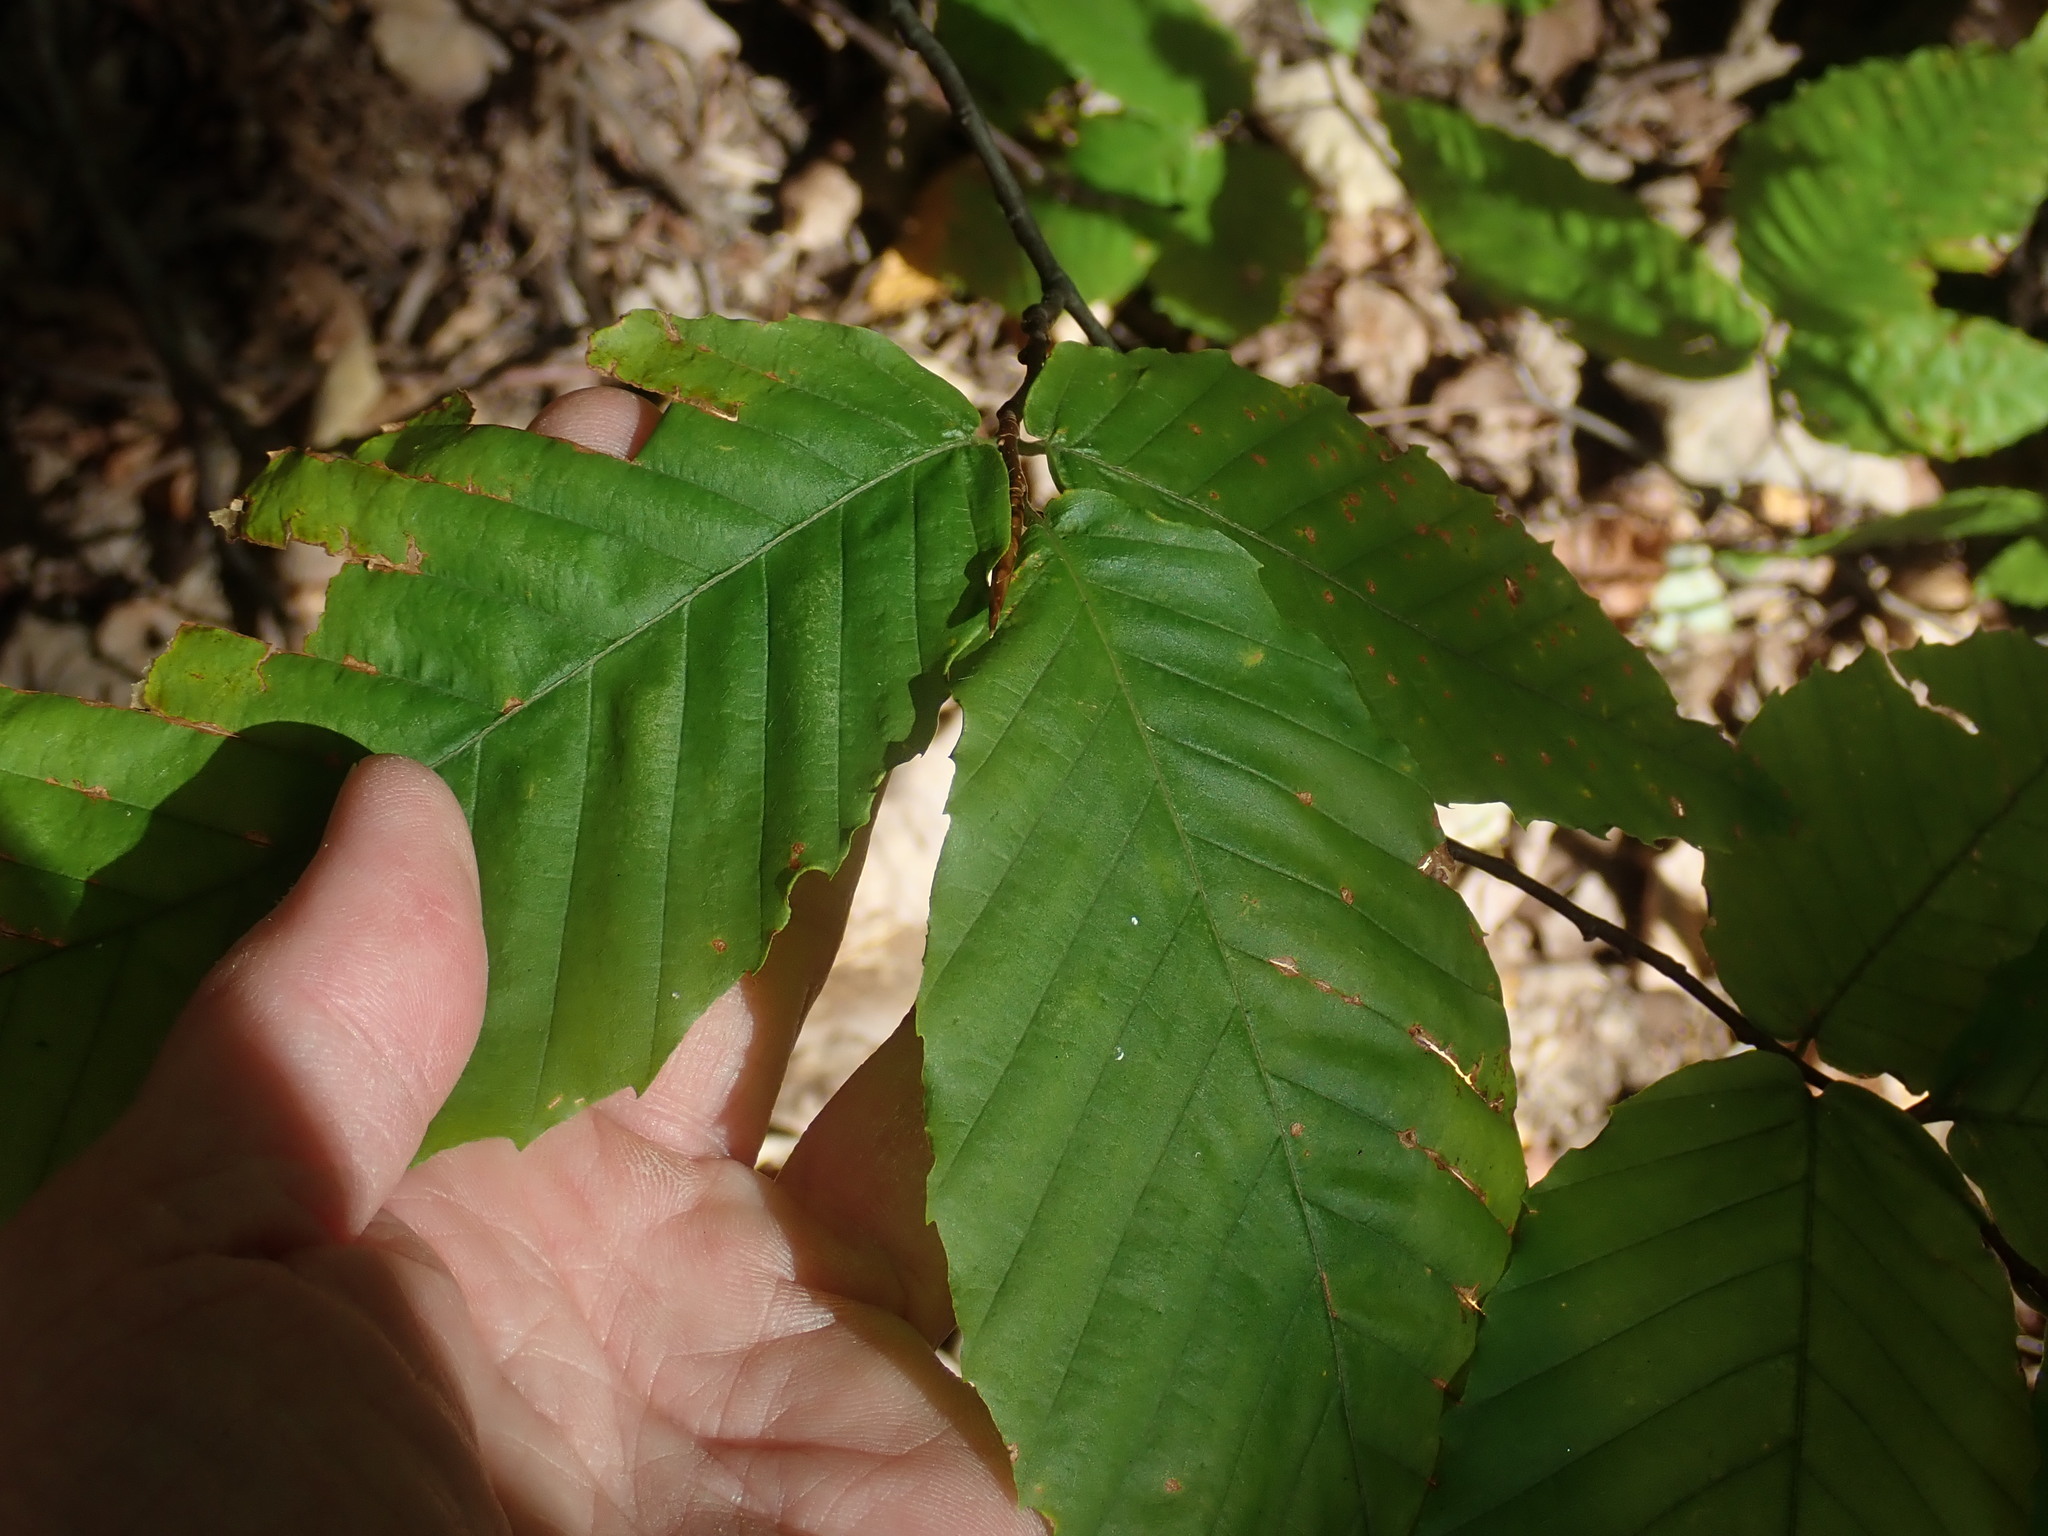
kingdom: Plantae
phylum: Tracheophyta
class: Magnoliopsida
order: Fagales
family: Fagaceae
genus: Fagus
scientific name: Fagus grandifolia
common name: American beech
